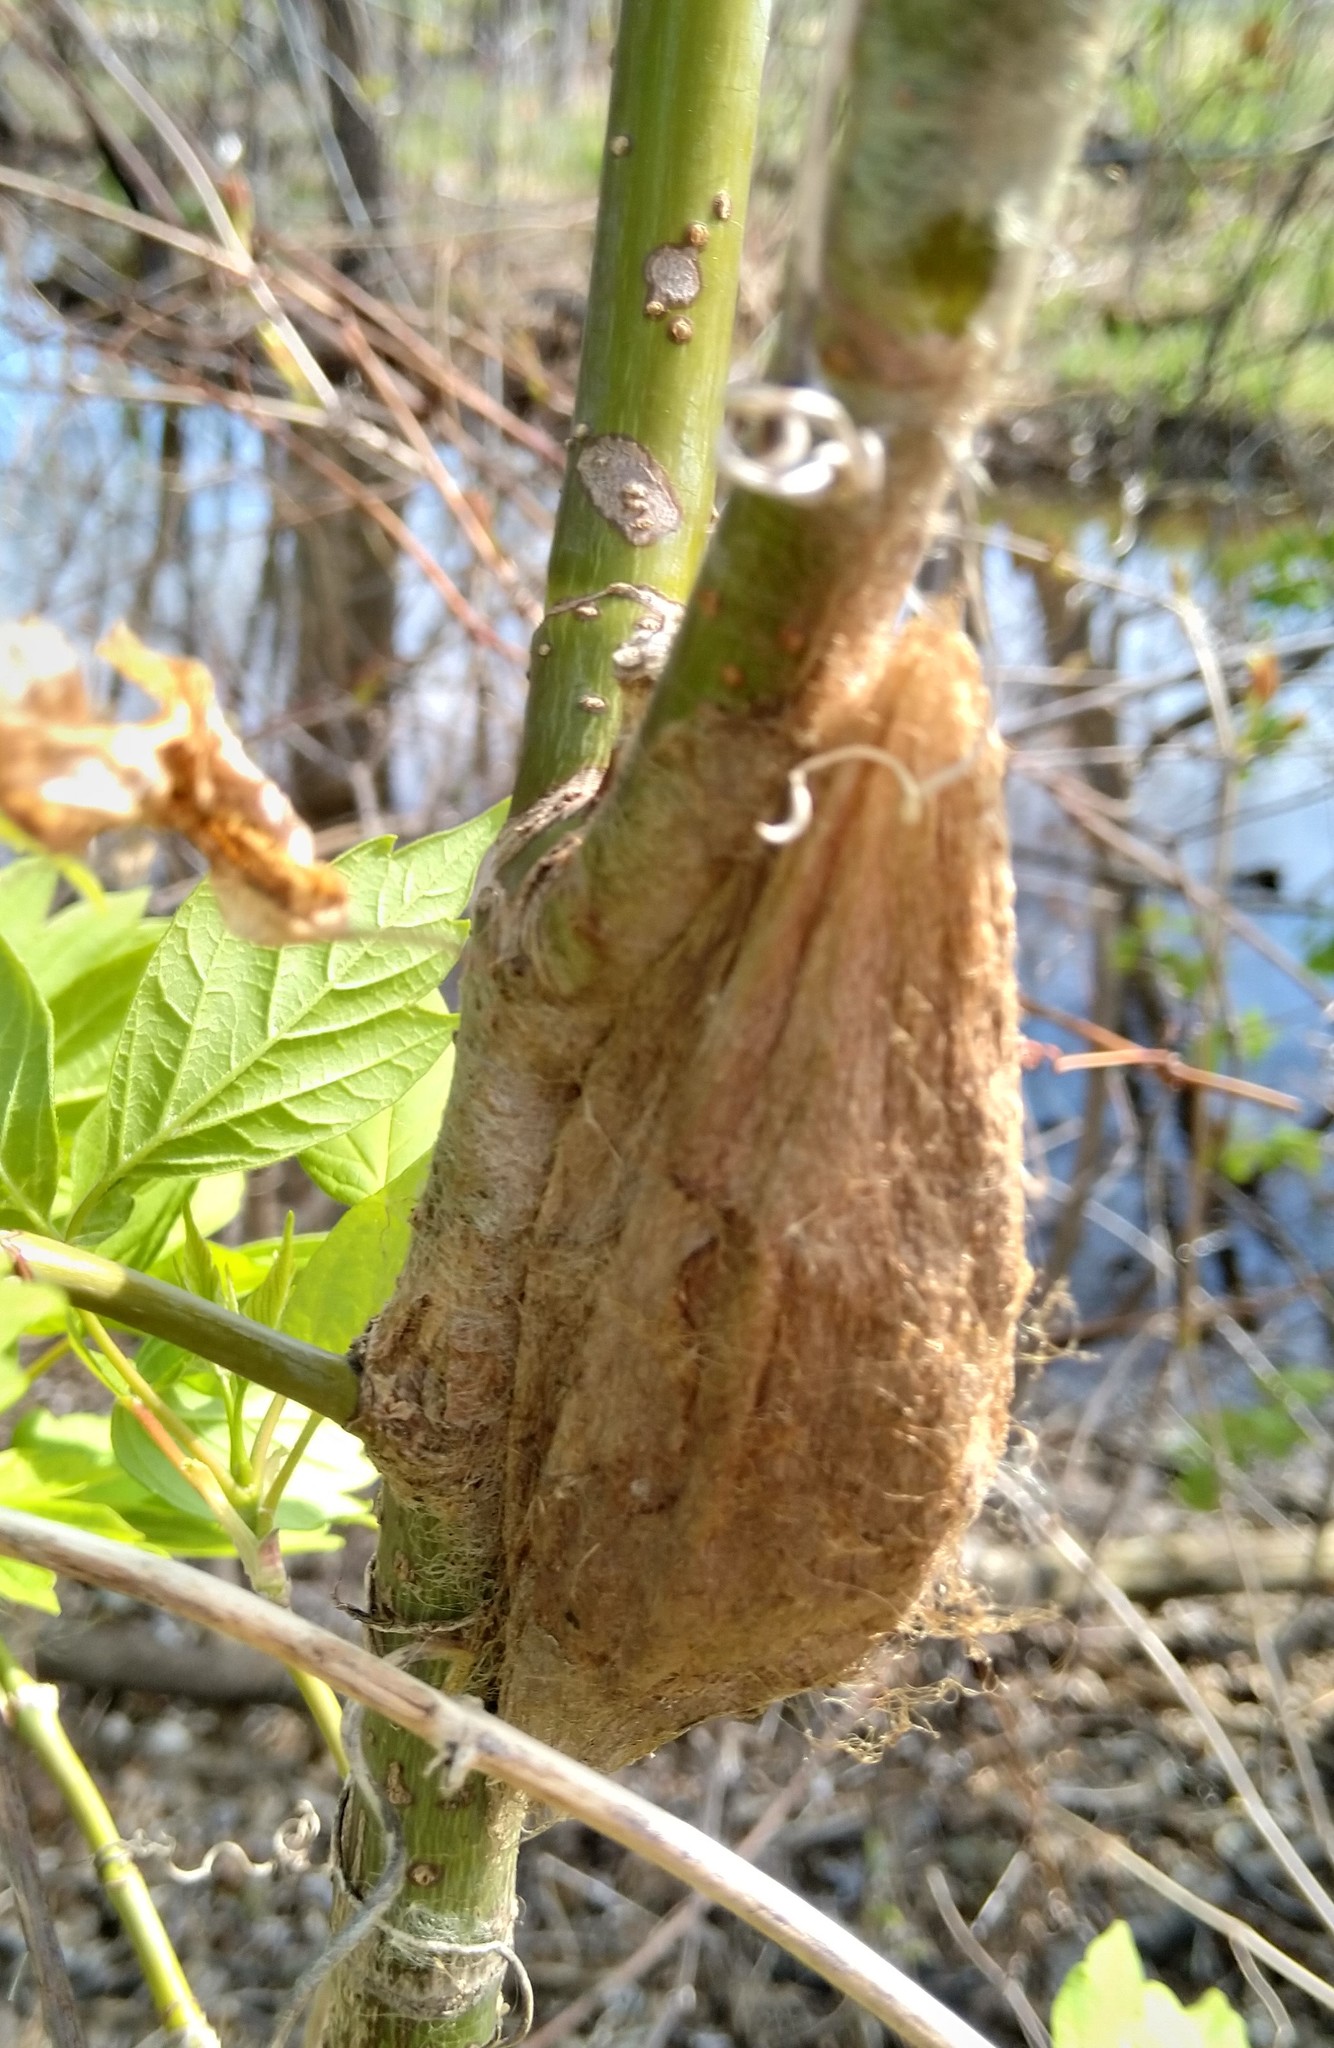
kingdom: Animalia
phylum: Arthropoda
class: Insecta
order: Lepidoptera
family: Saturniidae
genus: Hyalophora
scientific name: Hyalophora cecropia
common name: Cecropia silkmoth
